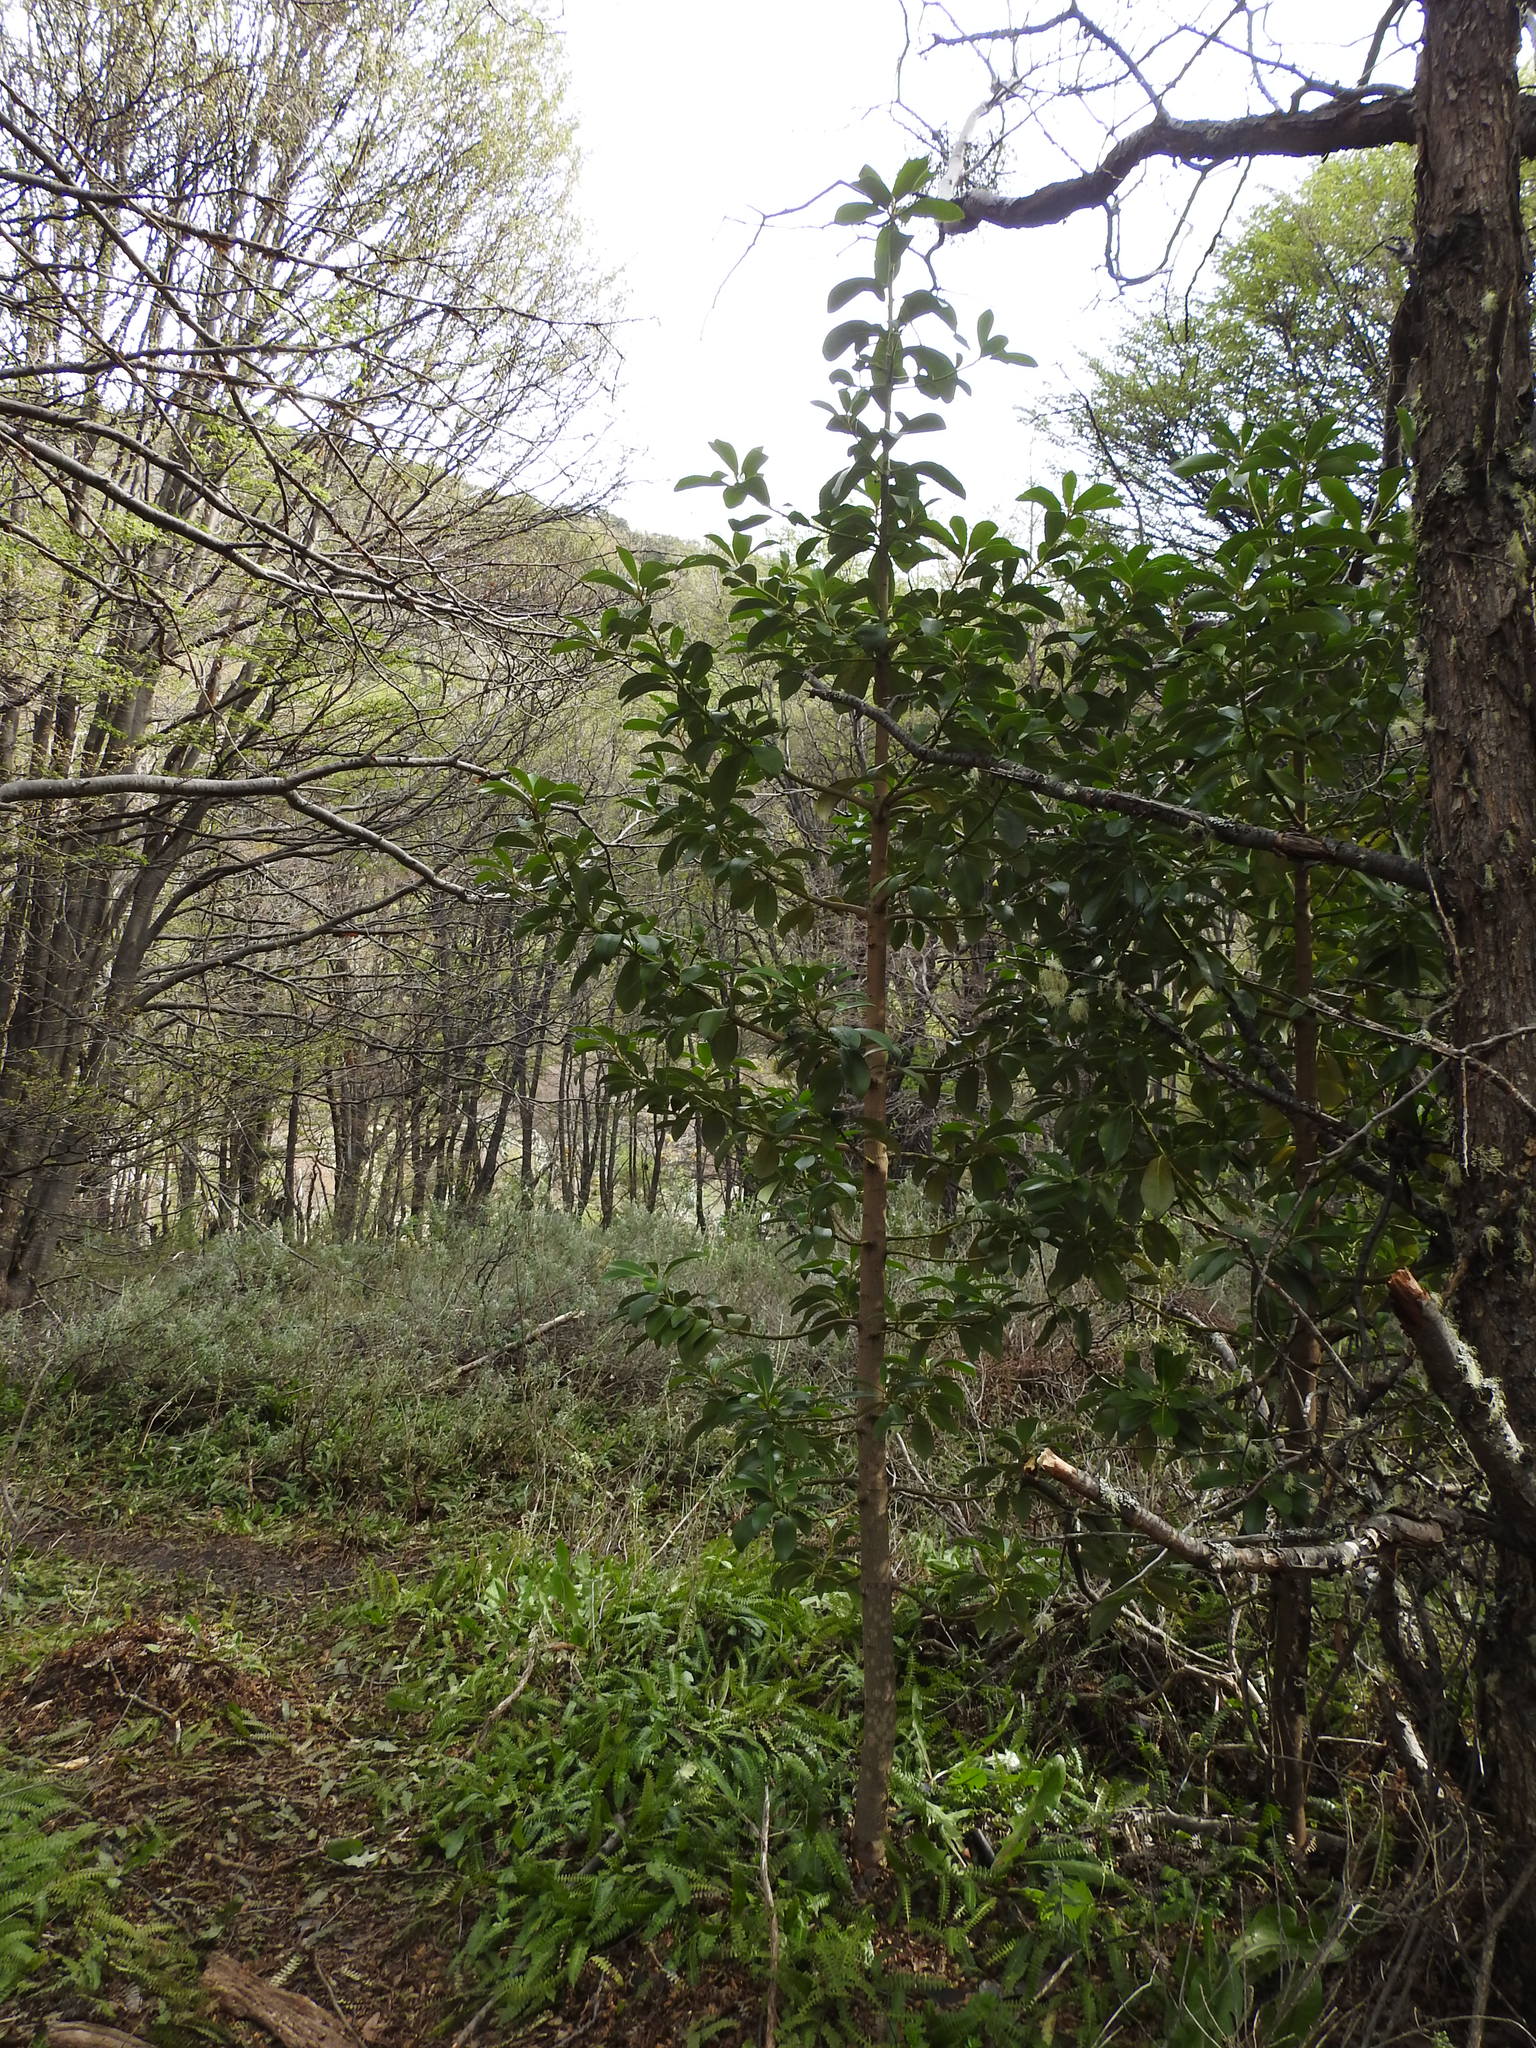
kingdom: Plantae
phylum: Tracheophyta
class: Magnoliopsida
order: Canellales
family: Winteraceae
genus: Drimys
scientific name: Drimys winteri
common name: Winter's-bark
